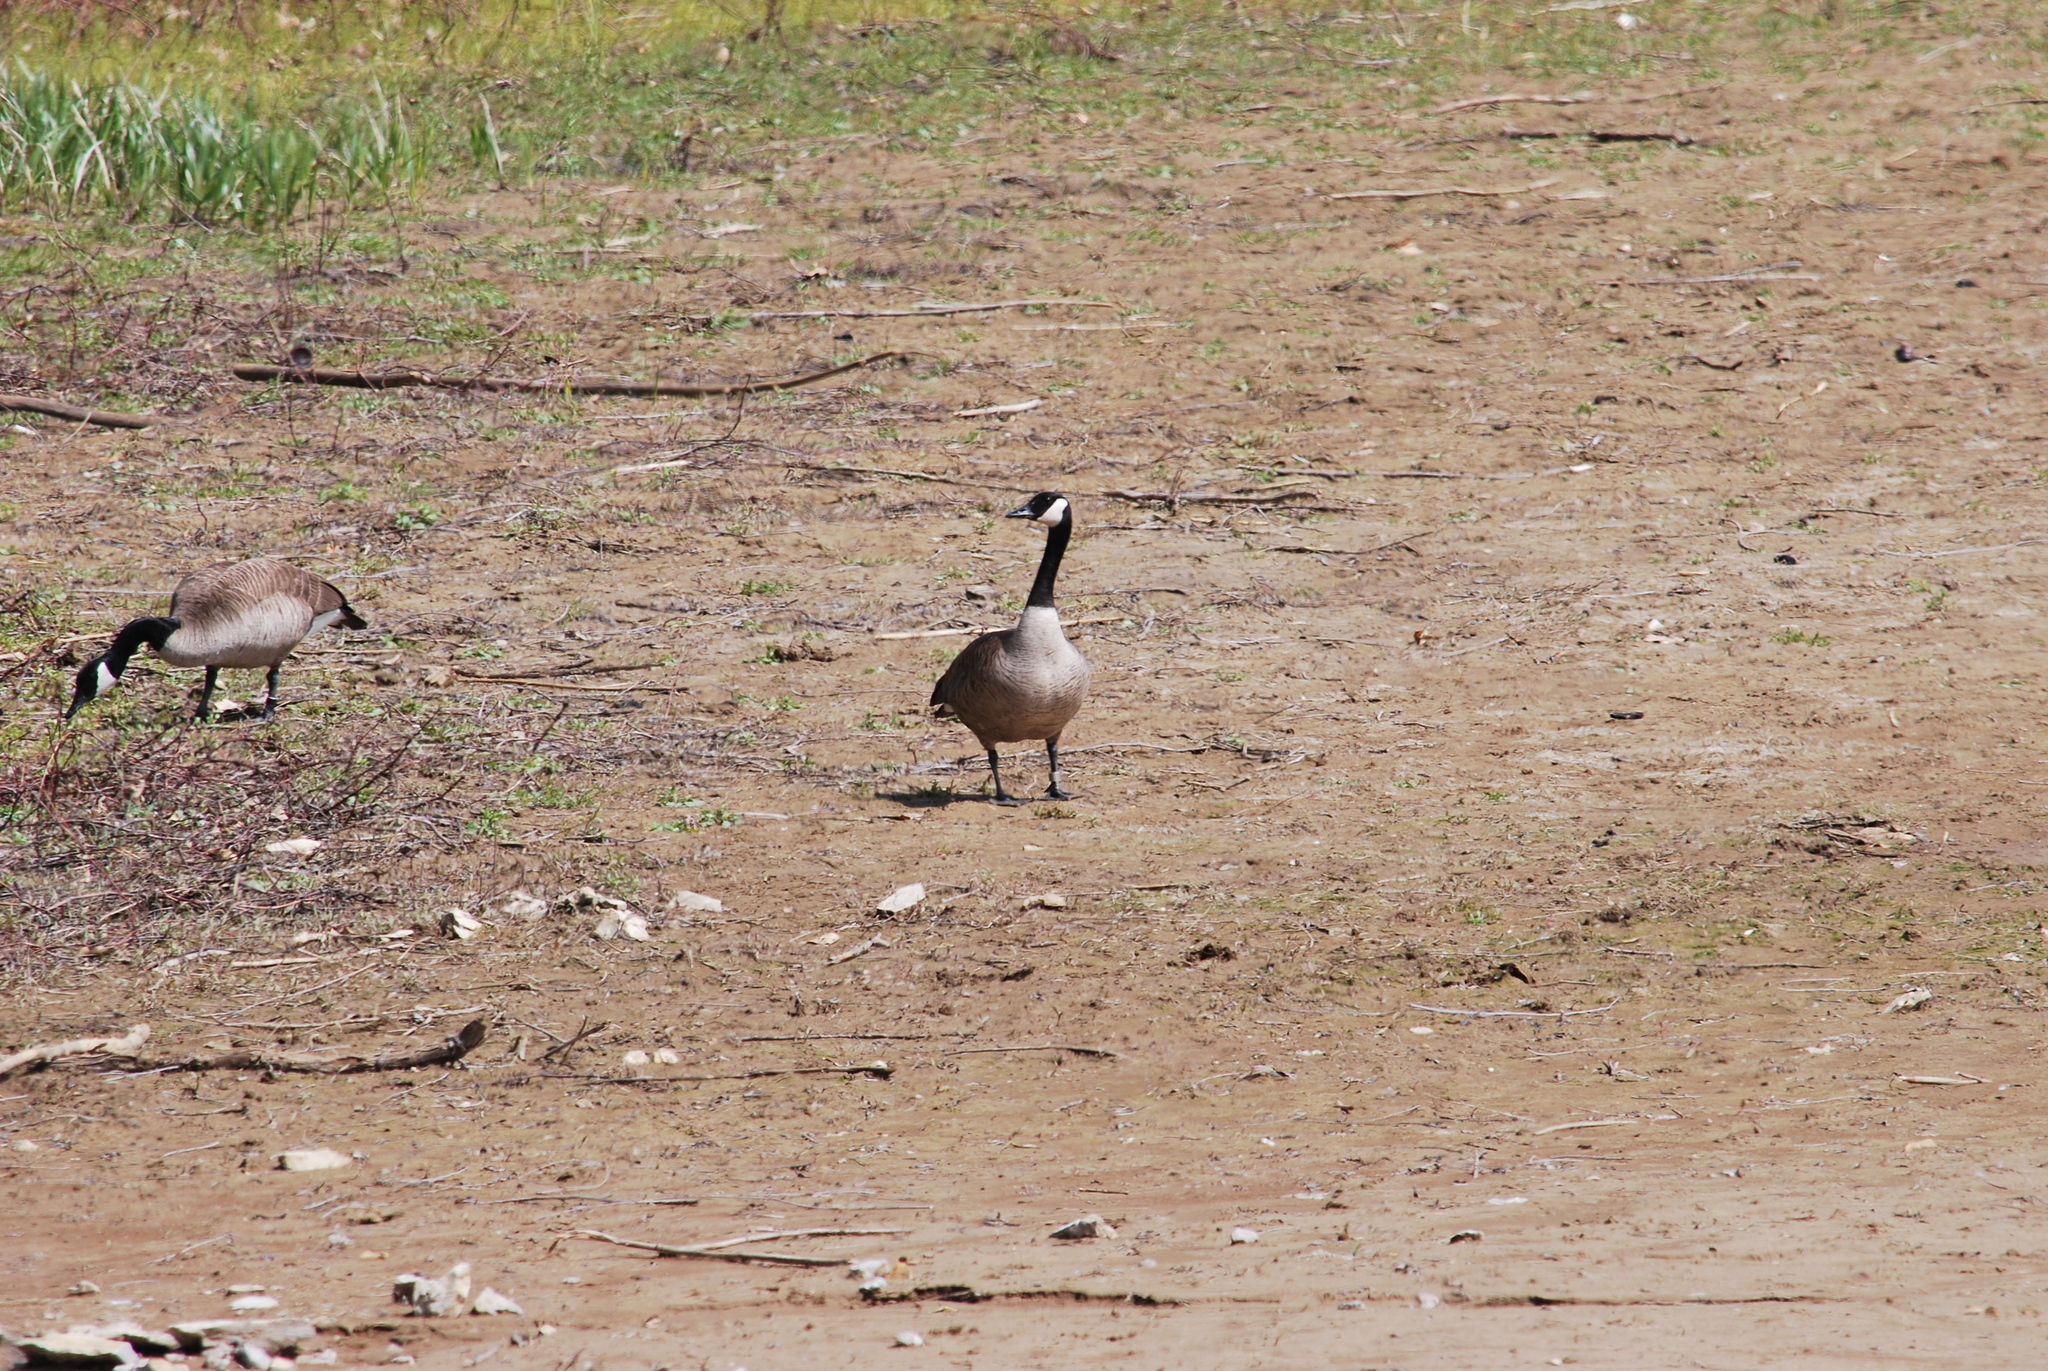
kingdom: Animalia
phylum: Chordata
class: Aves
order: Anseriformes
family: Anatidae
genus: Branta
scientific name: Branta canadensis
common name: Canada goose
